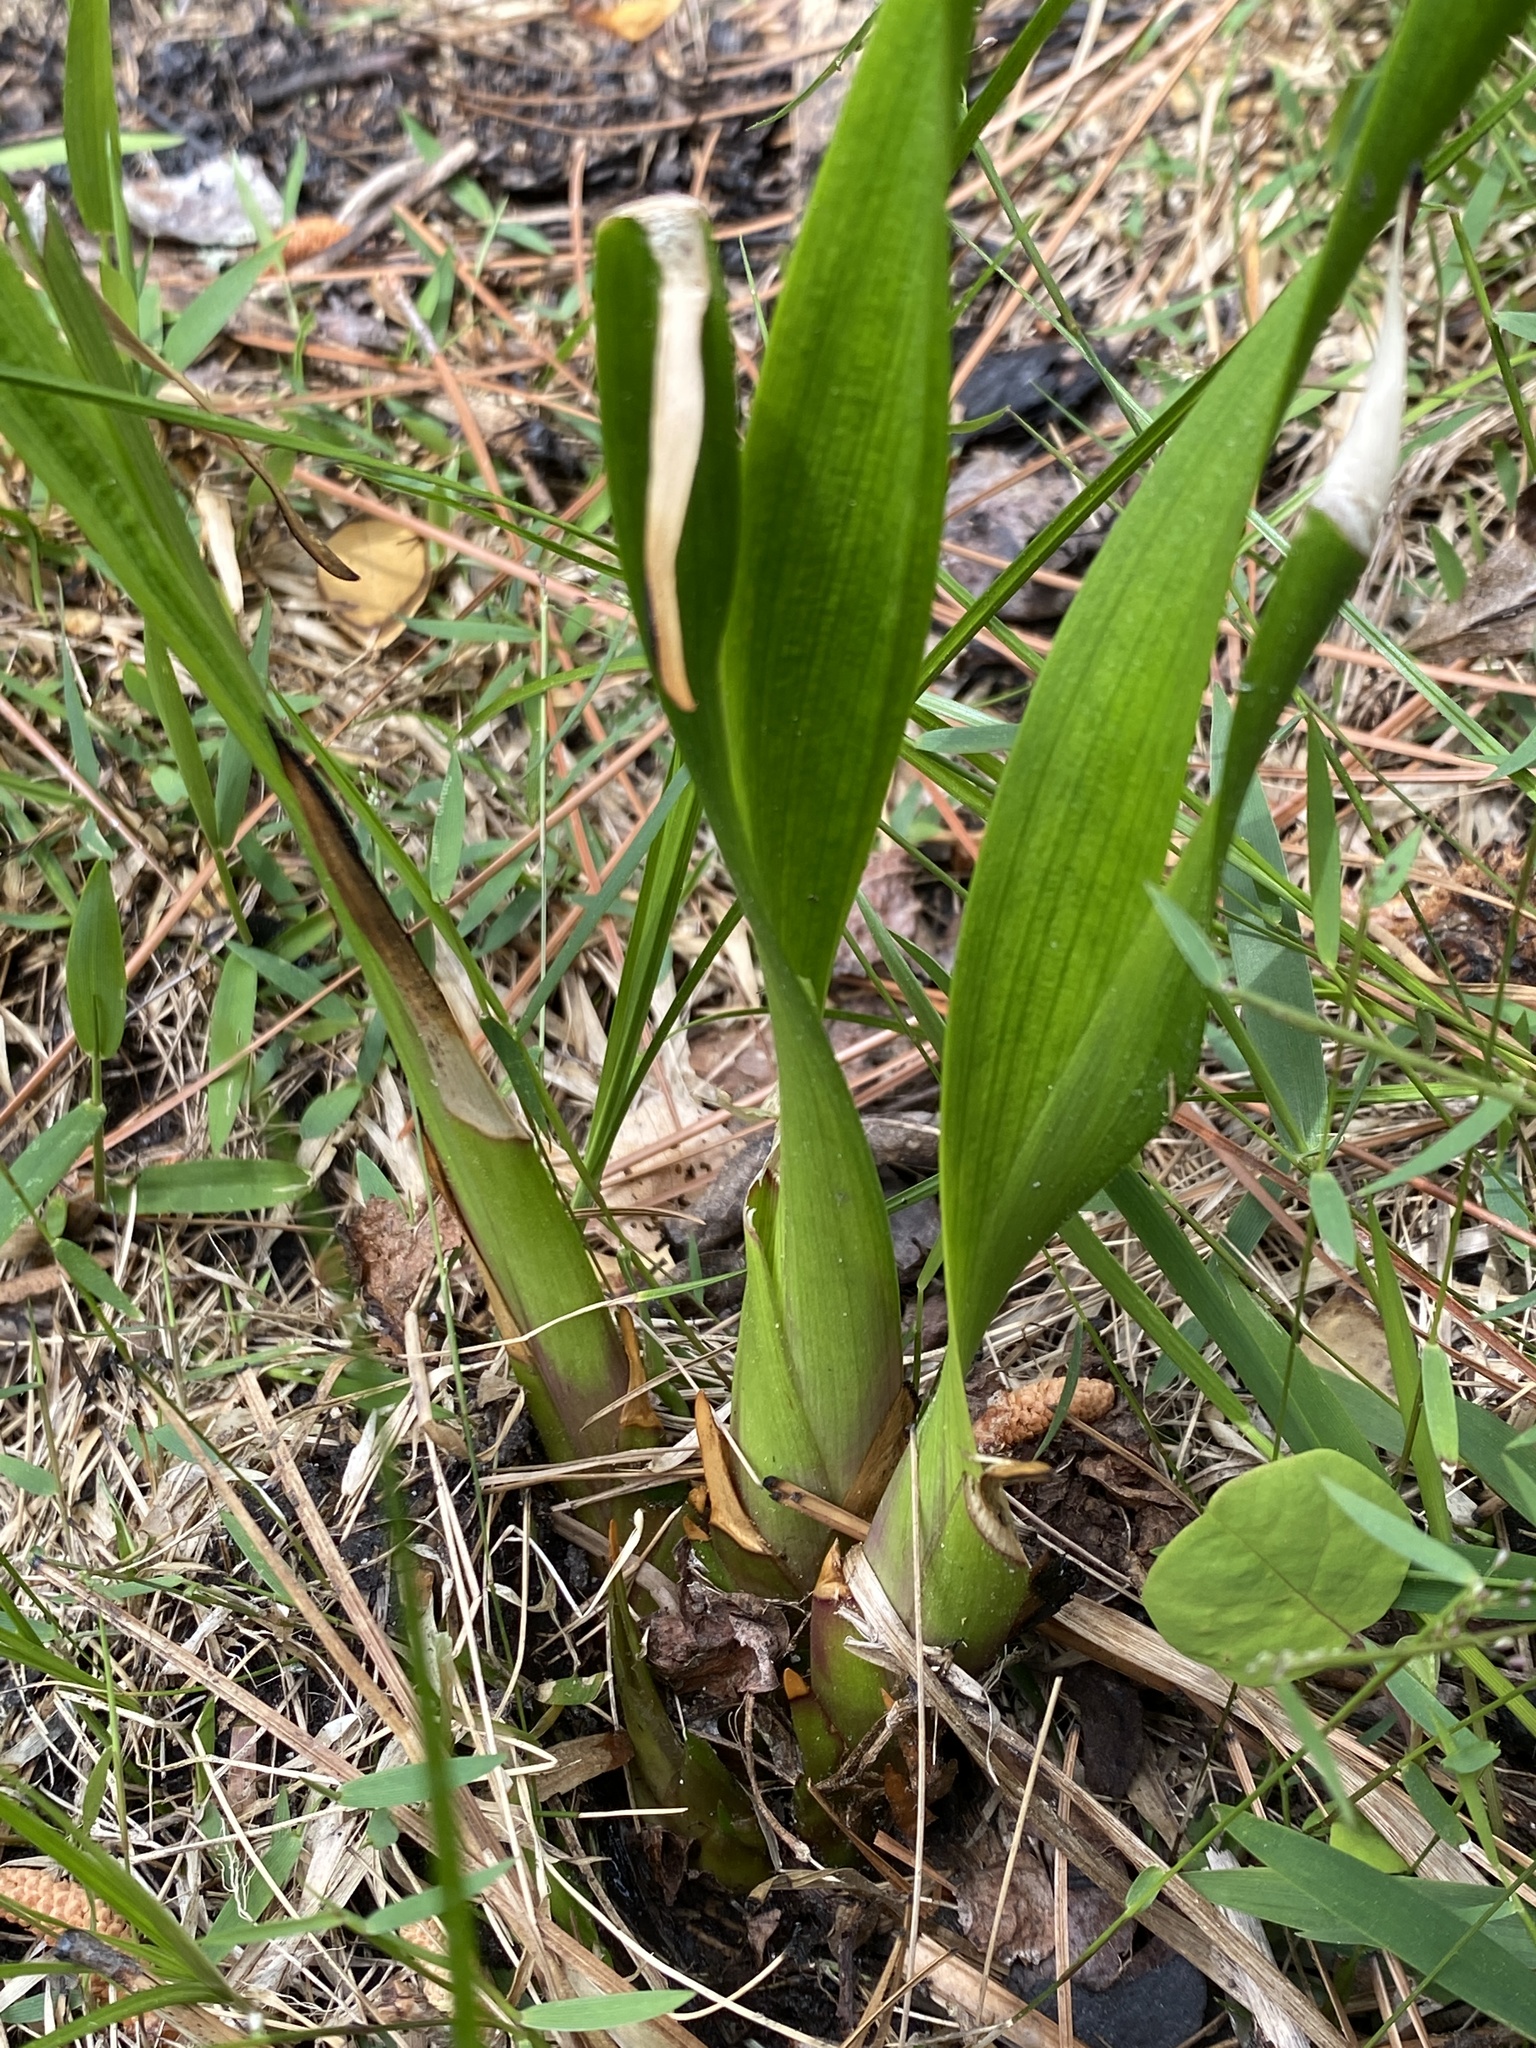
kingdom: Plantae
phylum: Tracheophyta
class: Liliopsida
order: Poales
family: Xyridaceae
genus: Xyris
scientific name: Xyris platylepis
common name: Tall yelloweyed grass
